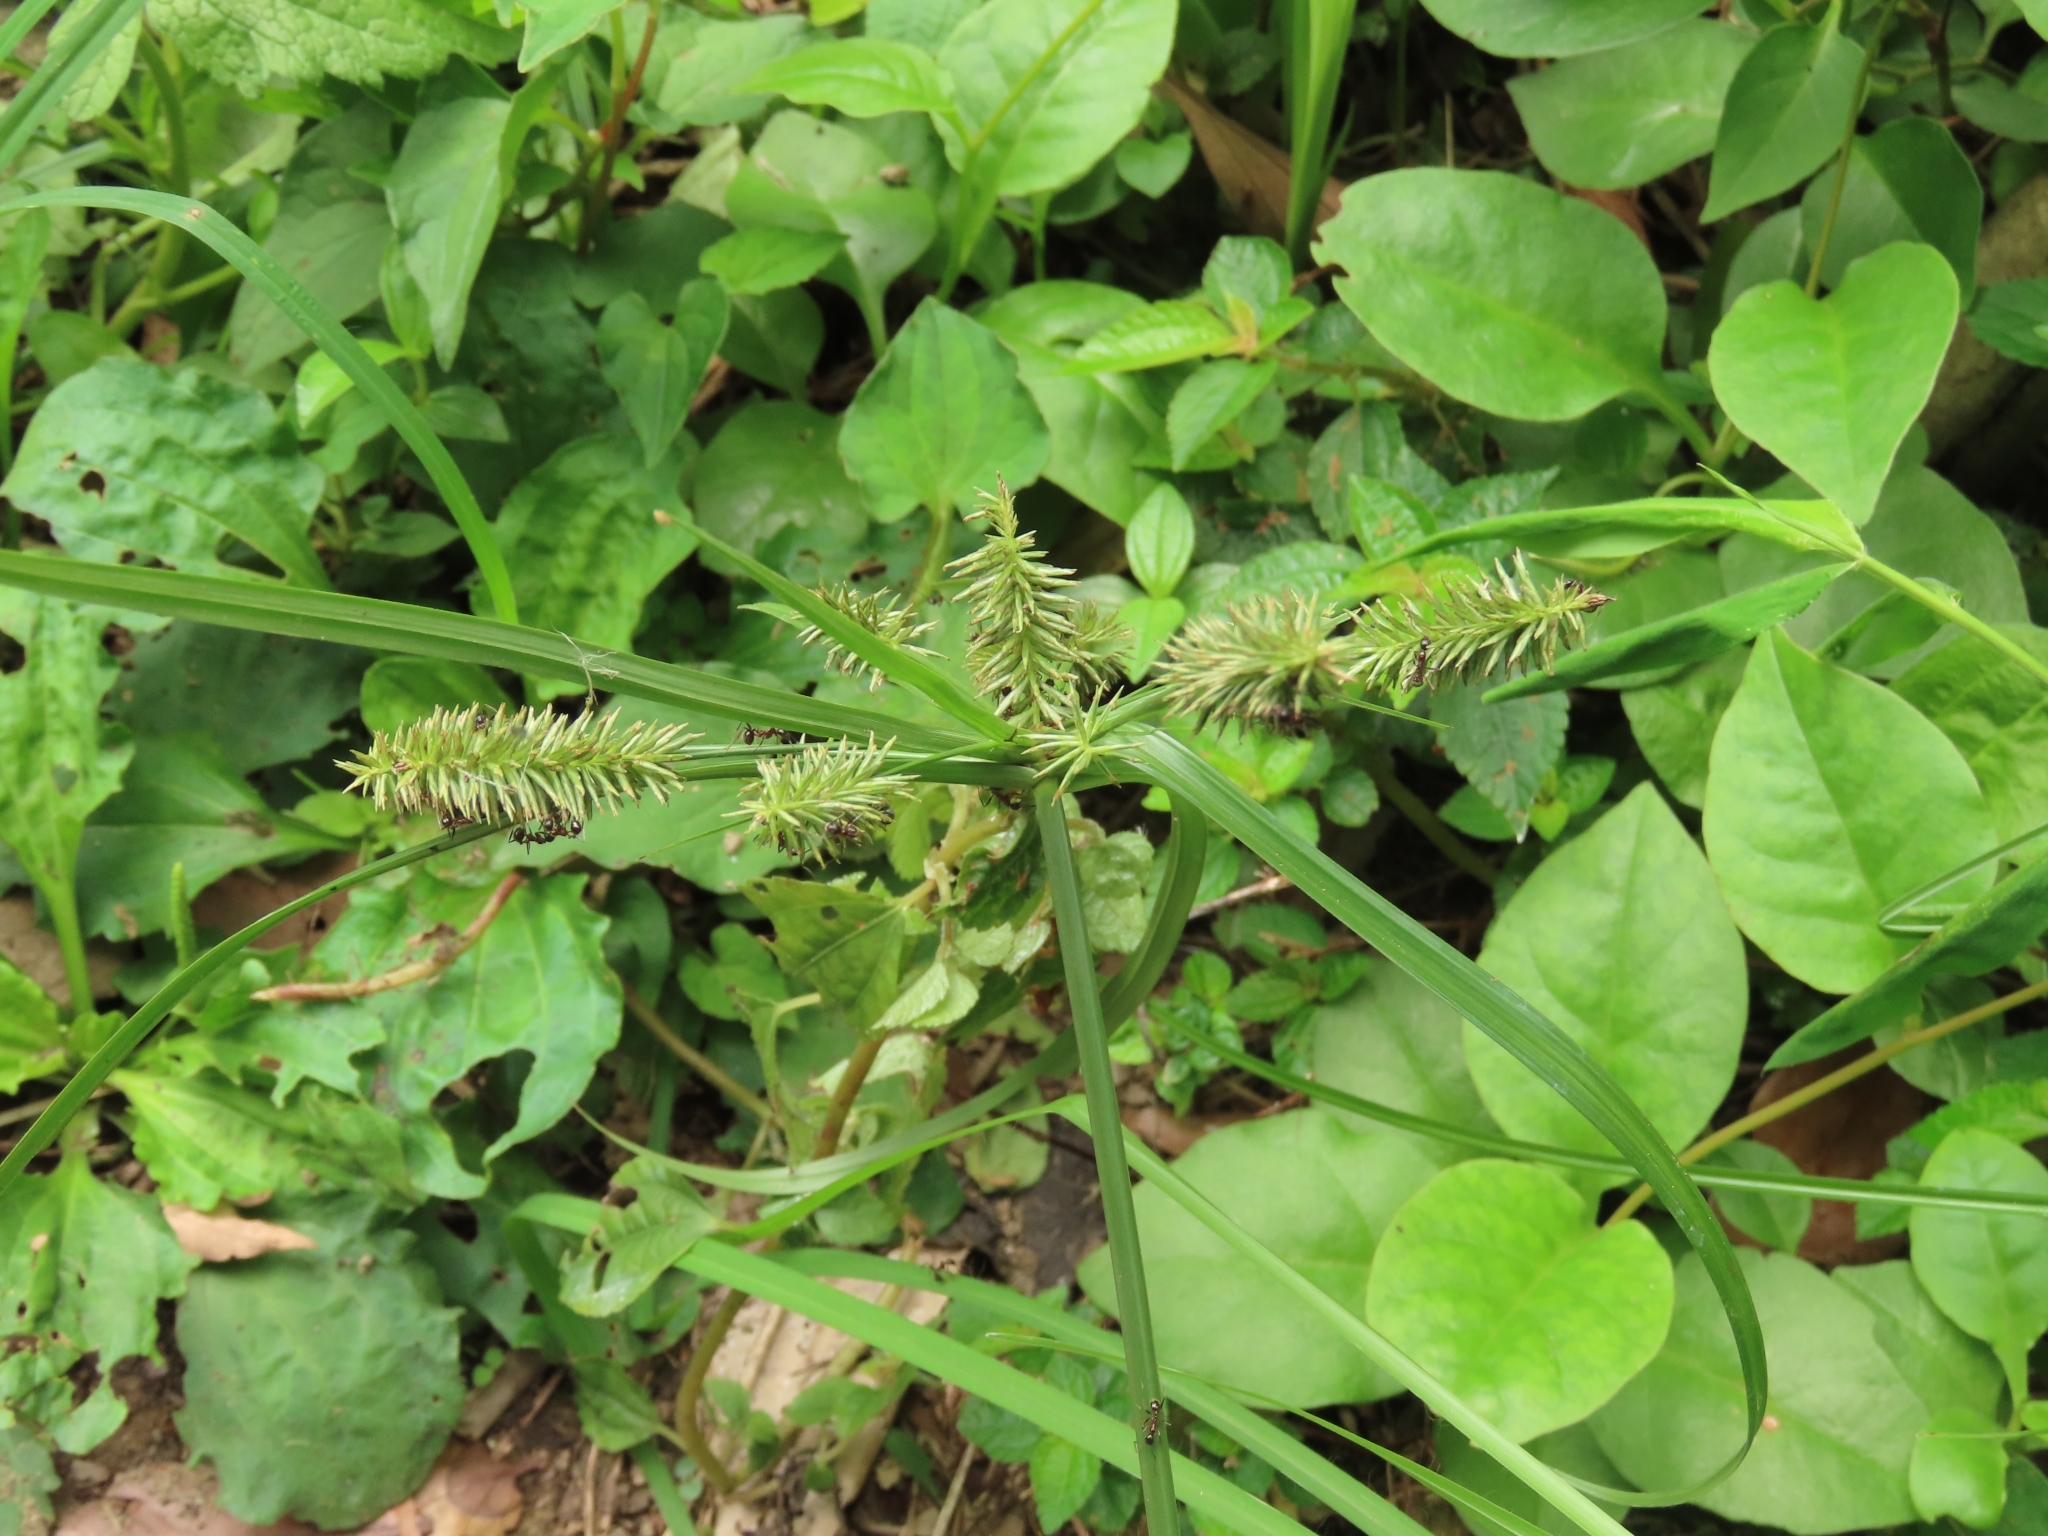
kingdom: Plantae
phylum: Tracheophyta
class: Liliopsida
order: Poales
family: Cyperaceae
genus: Cyperus
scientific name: Cyperus cyperoides
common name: Pacific island flat sedge
